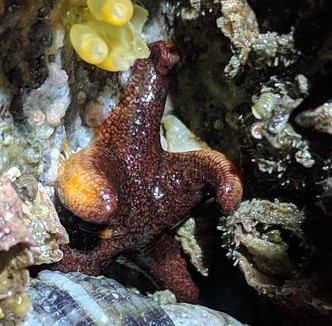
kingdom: Animalia
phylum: Echinodermata
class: Asteroidea
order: Spinulosida
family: Echinasteridae
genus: Henricia
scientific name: Henricia tumida
